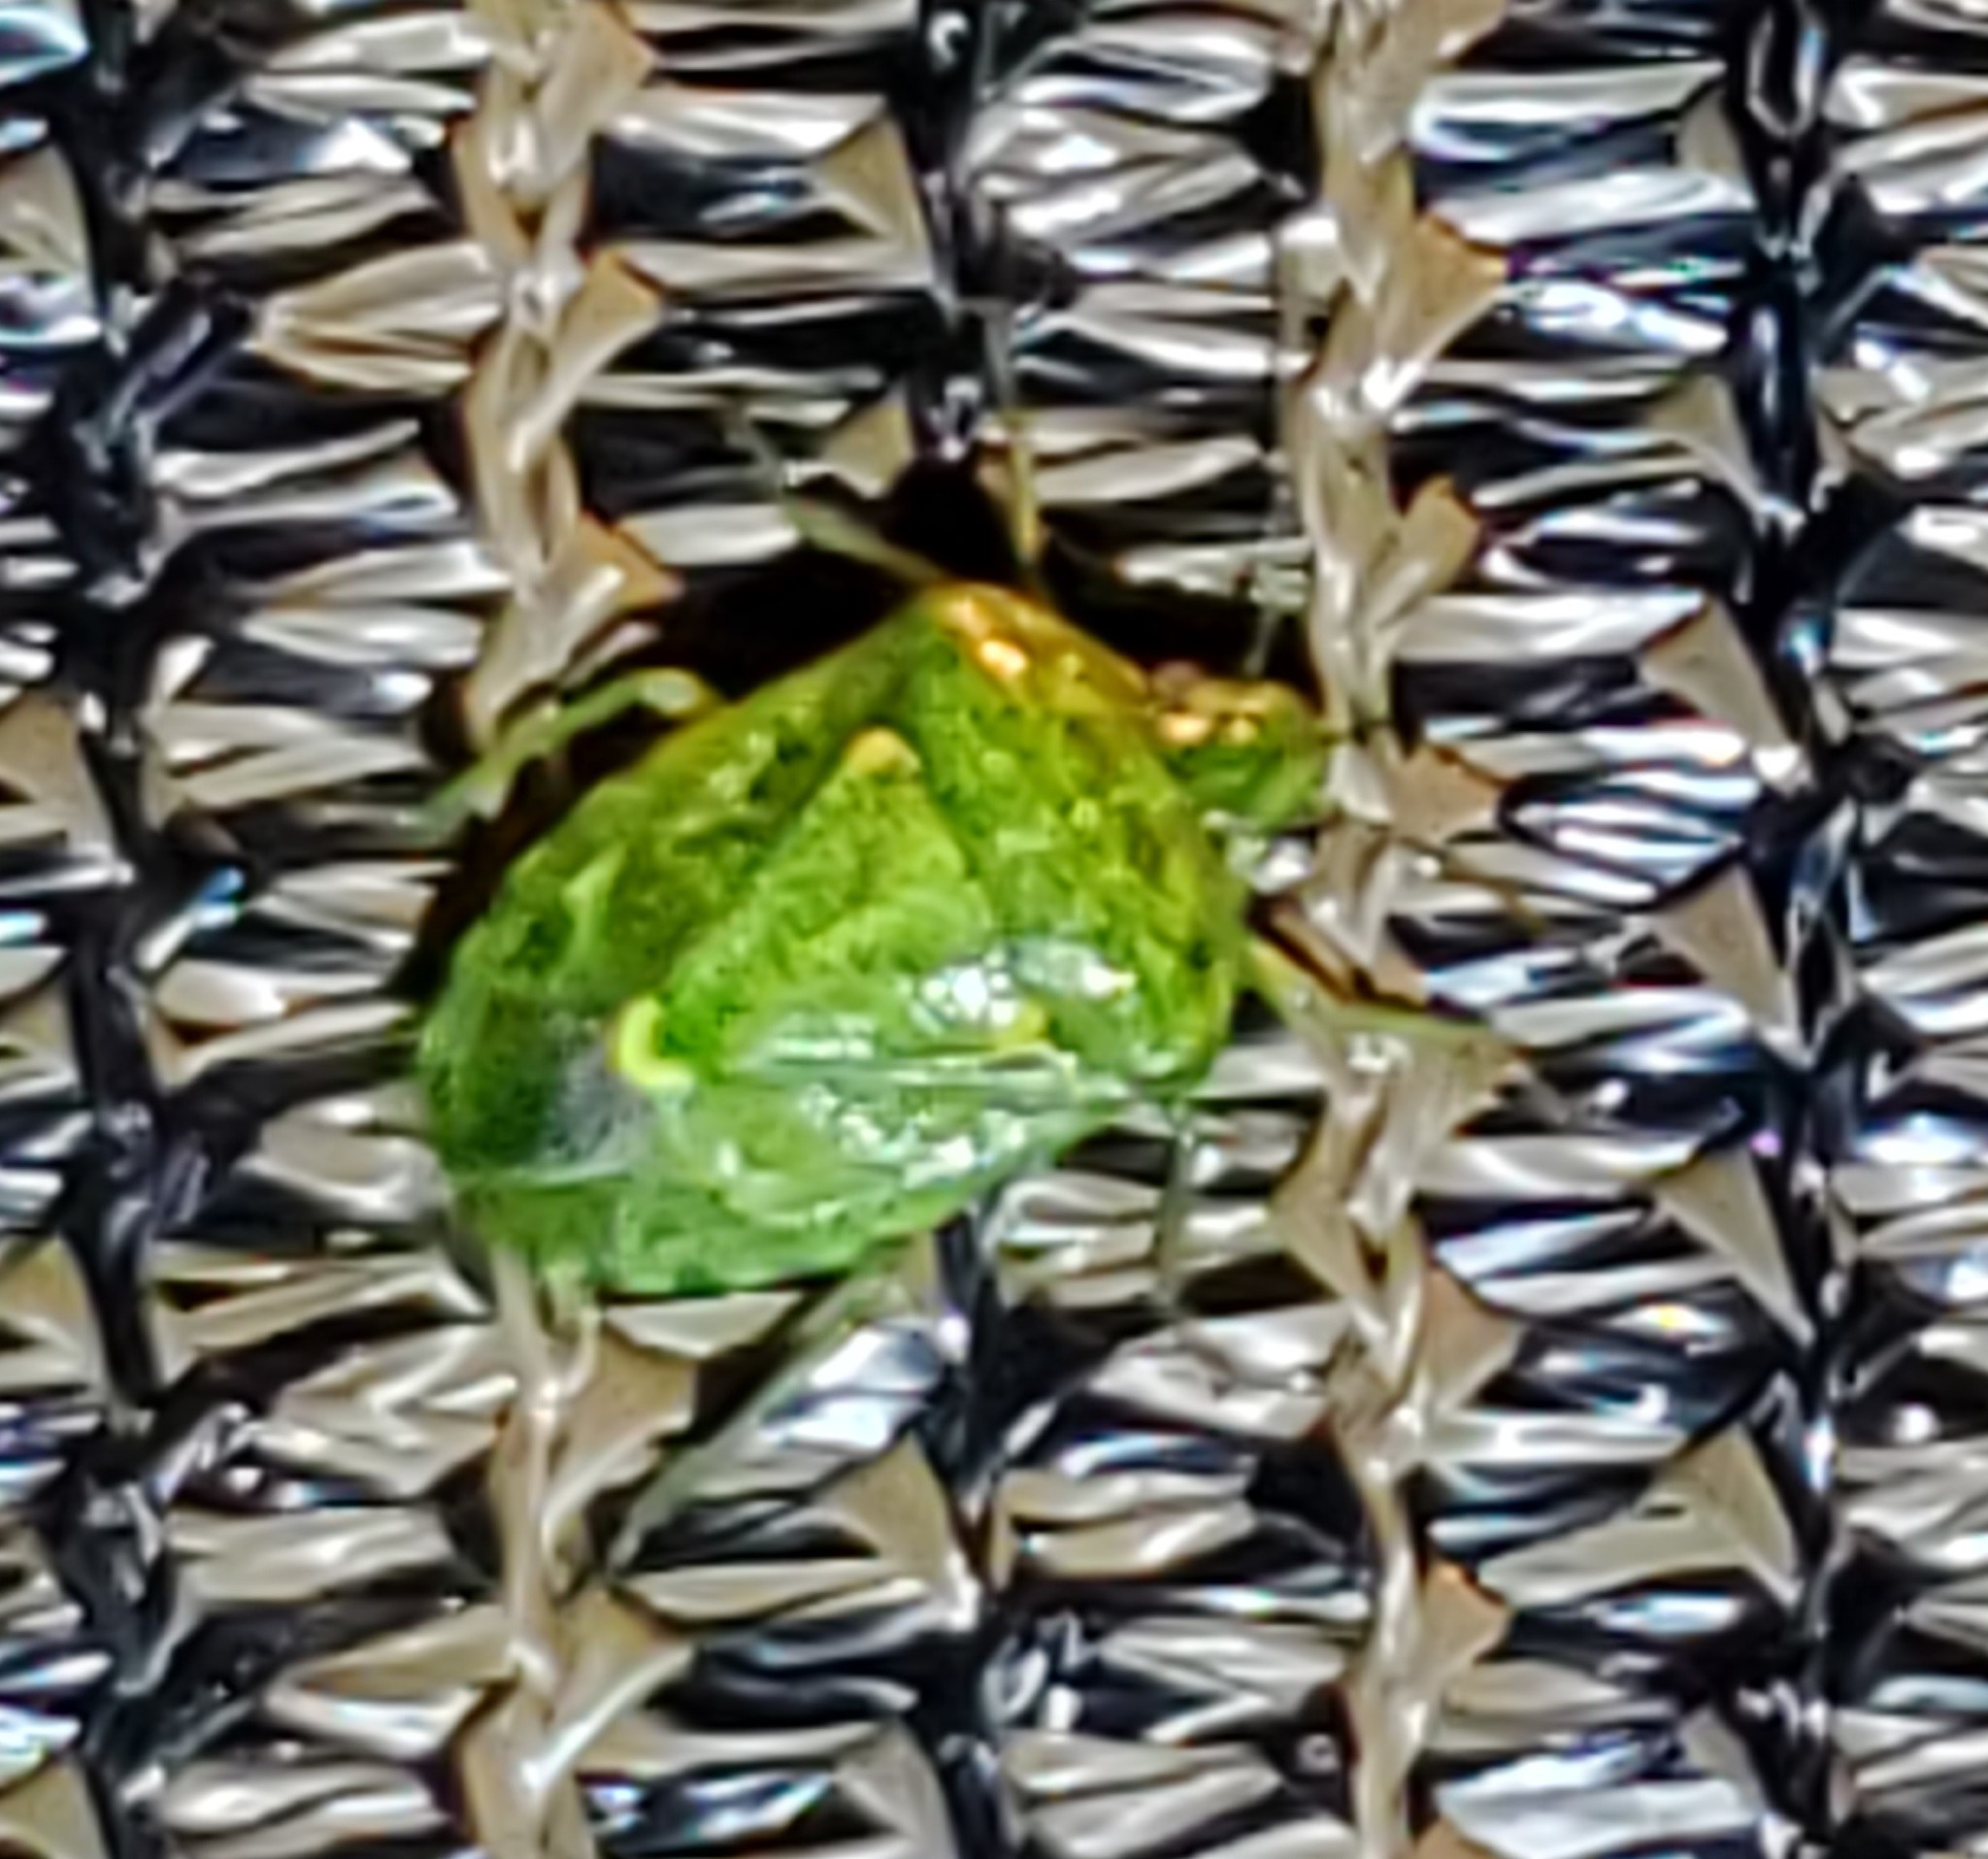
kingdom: Animalia
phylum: Arthropoda
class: Insecta
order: Hemiptera
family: Pentatomidae
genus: Banasa
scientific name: Banasa euchlora
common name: Cedar berry bug
